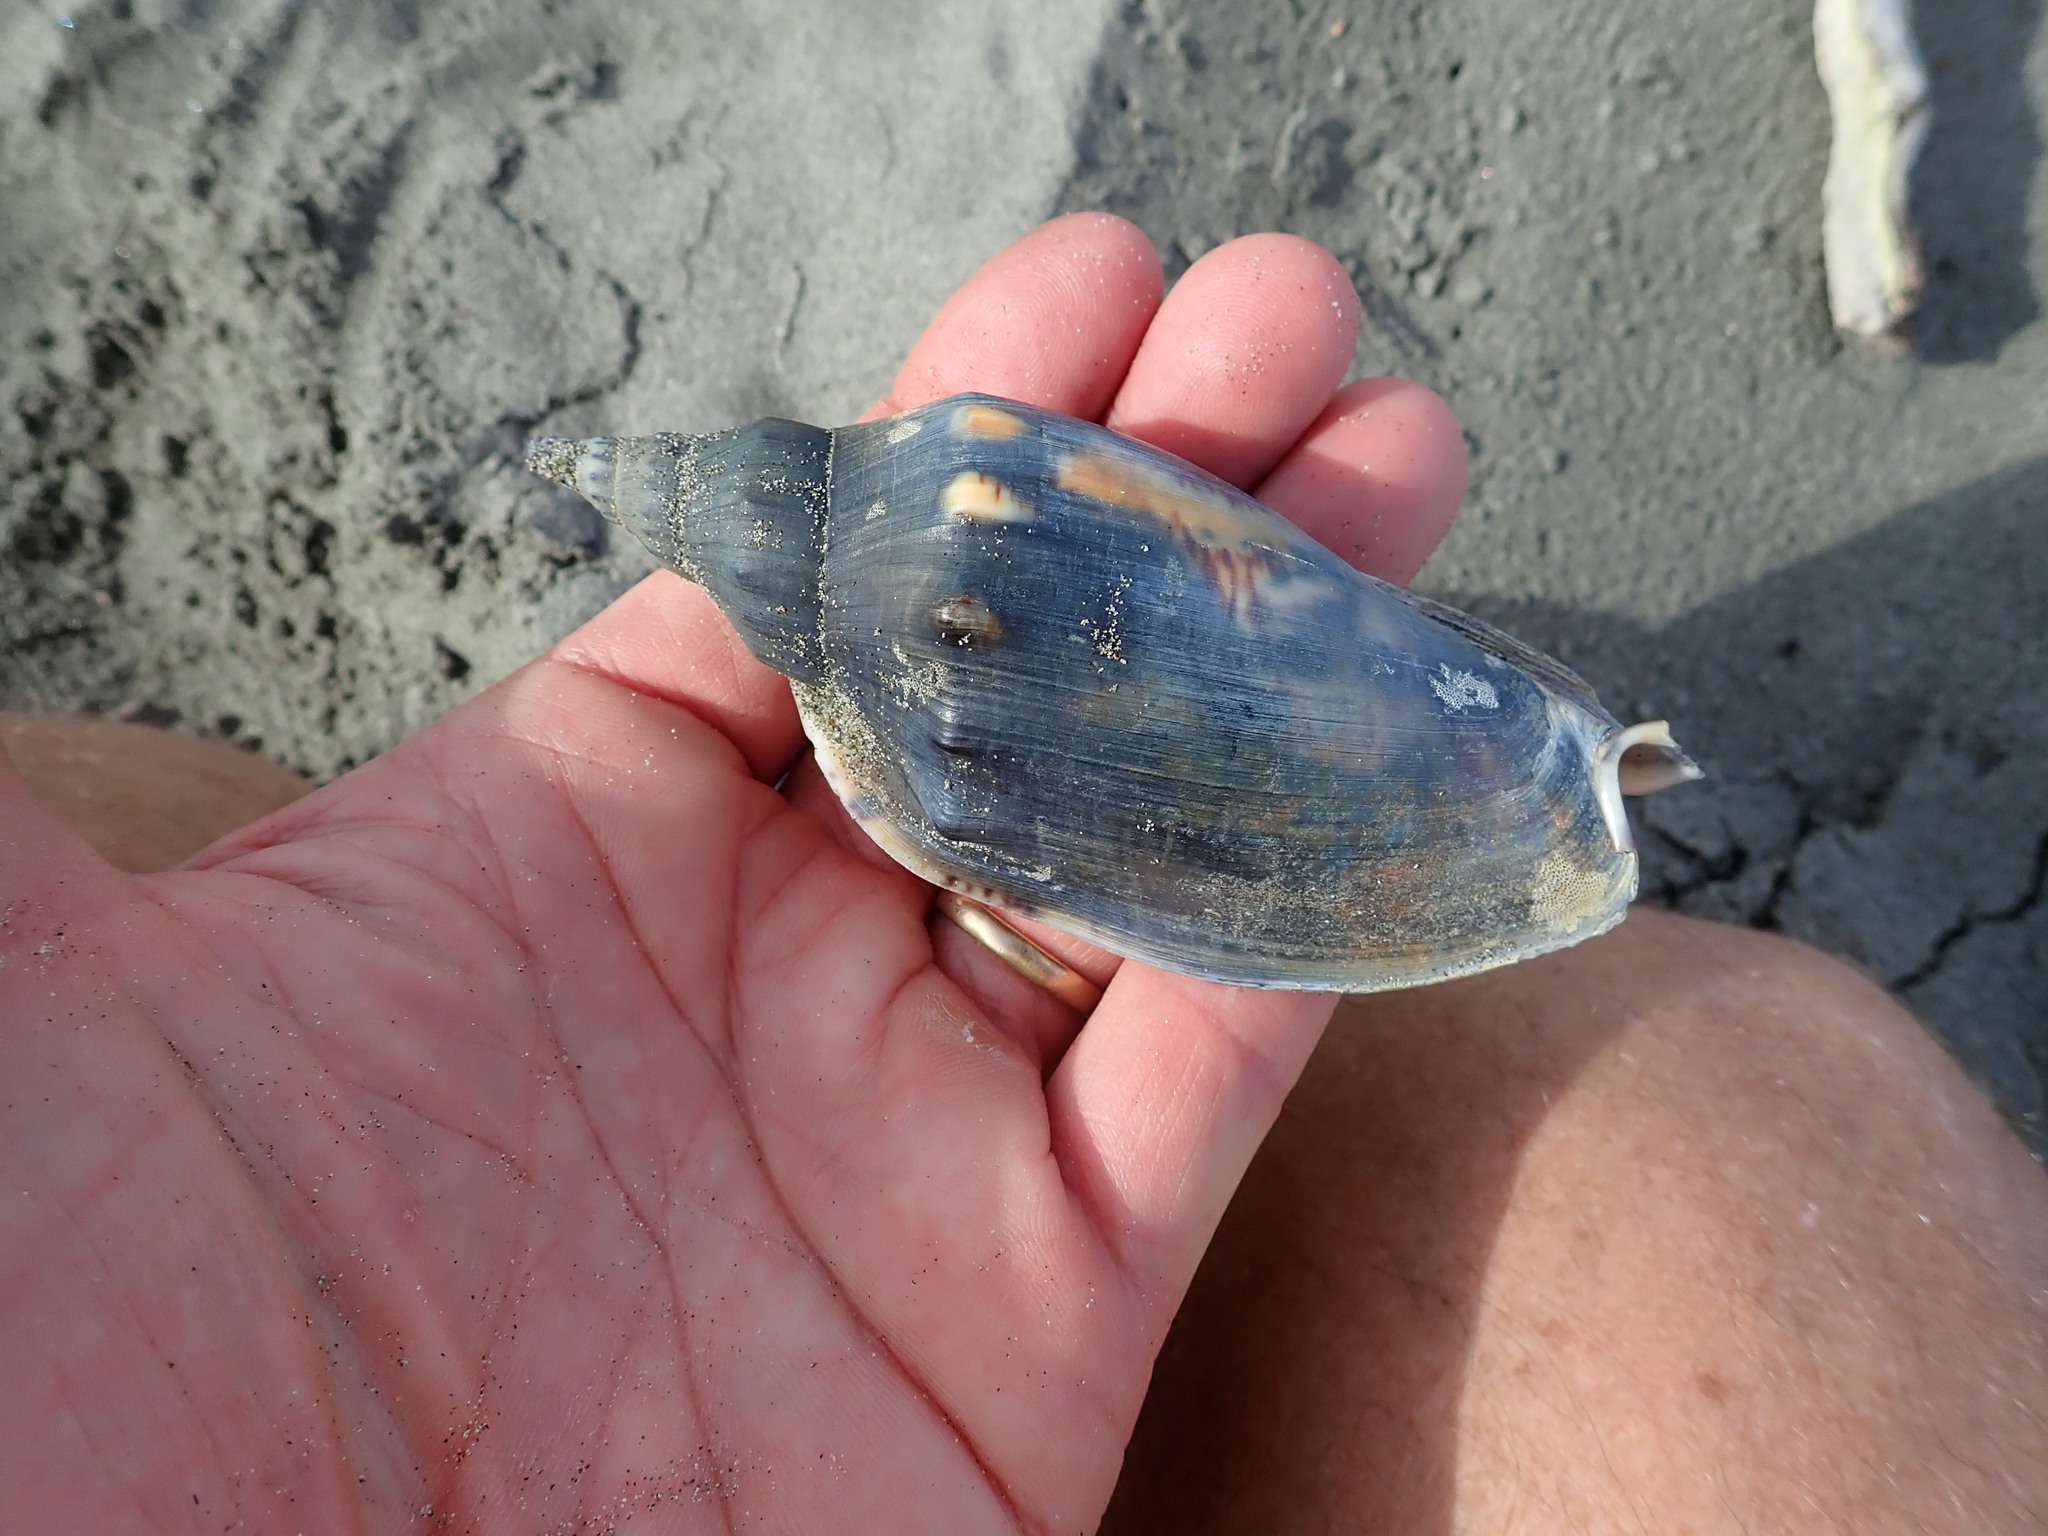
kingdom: Animalia
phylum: Mollusca
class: Gastropoda
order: Neogastropoda
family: Volutidae
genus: Alcithoe
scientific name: Alcithoe arabica
